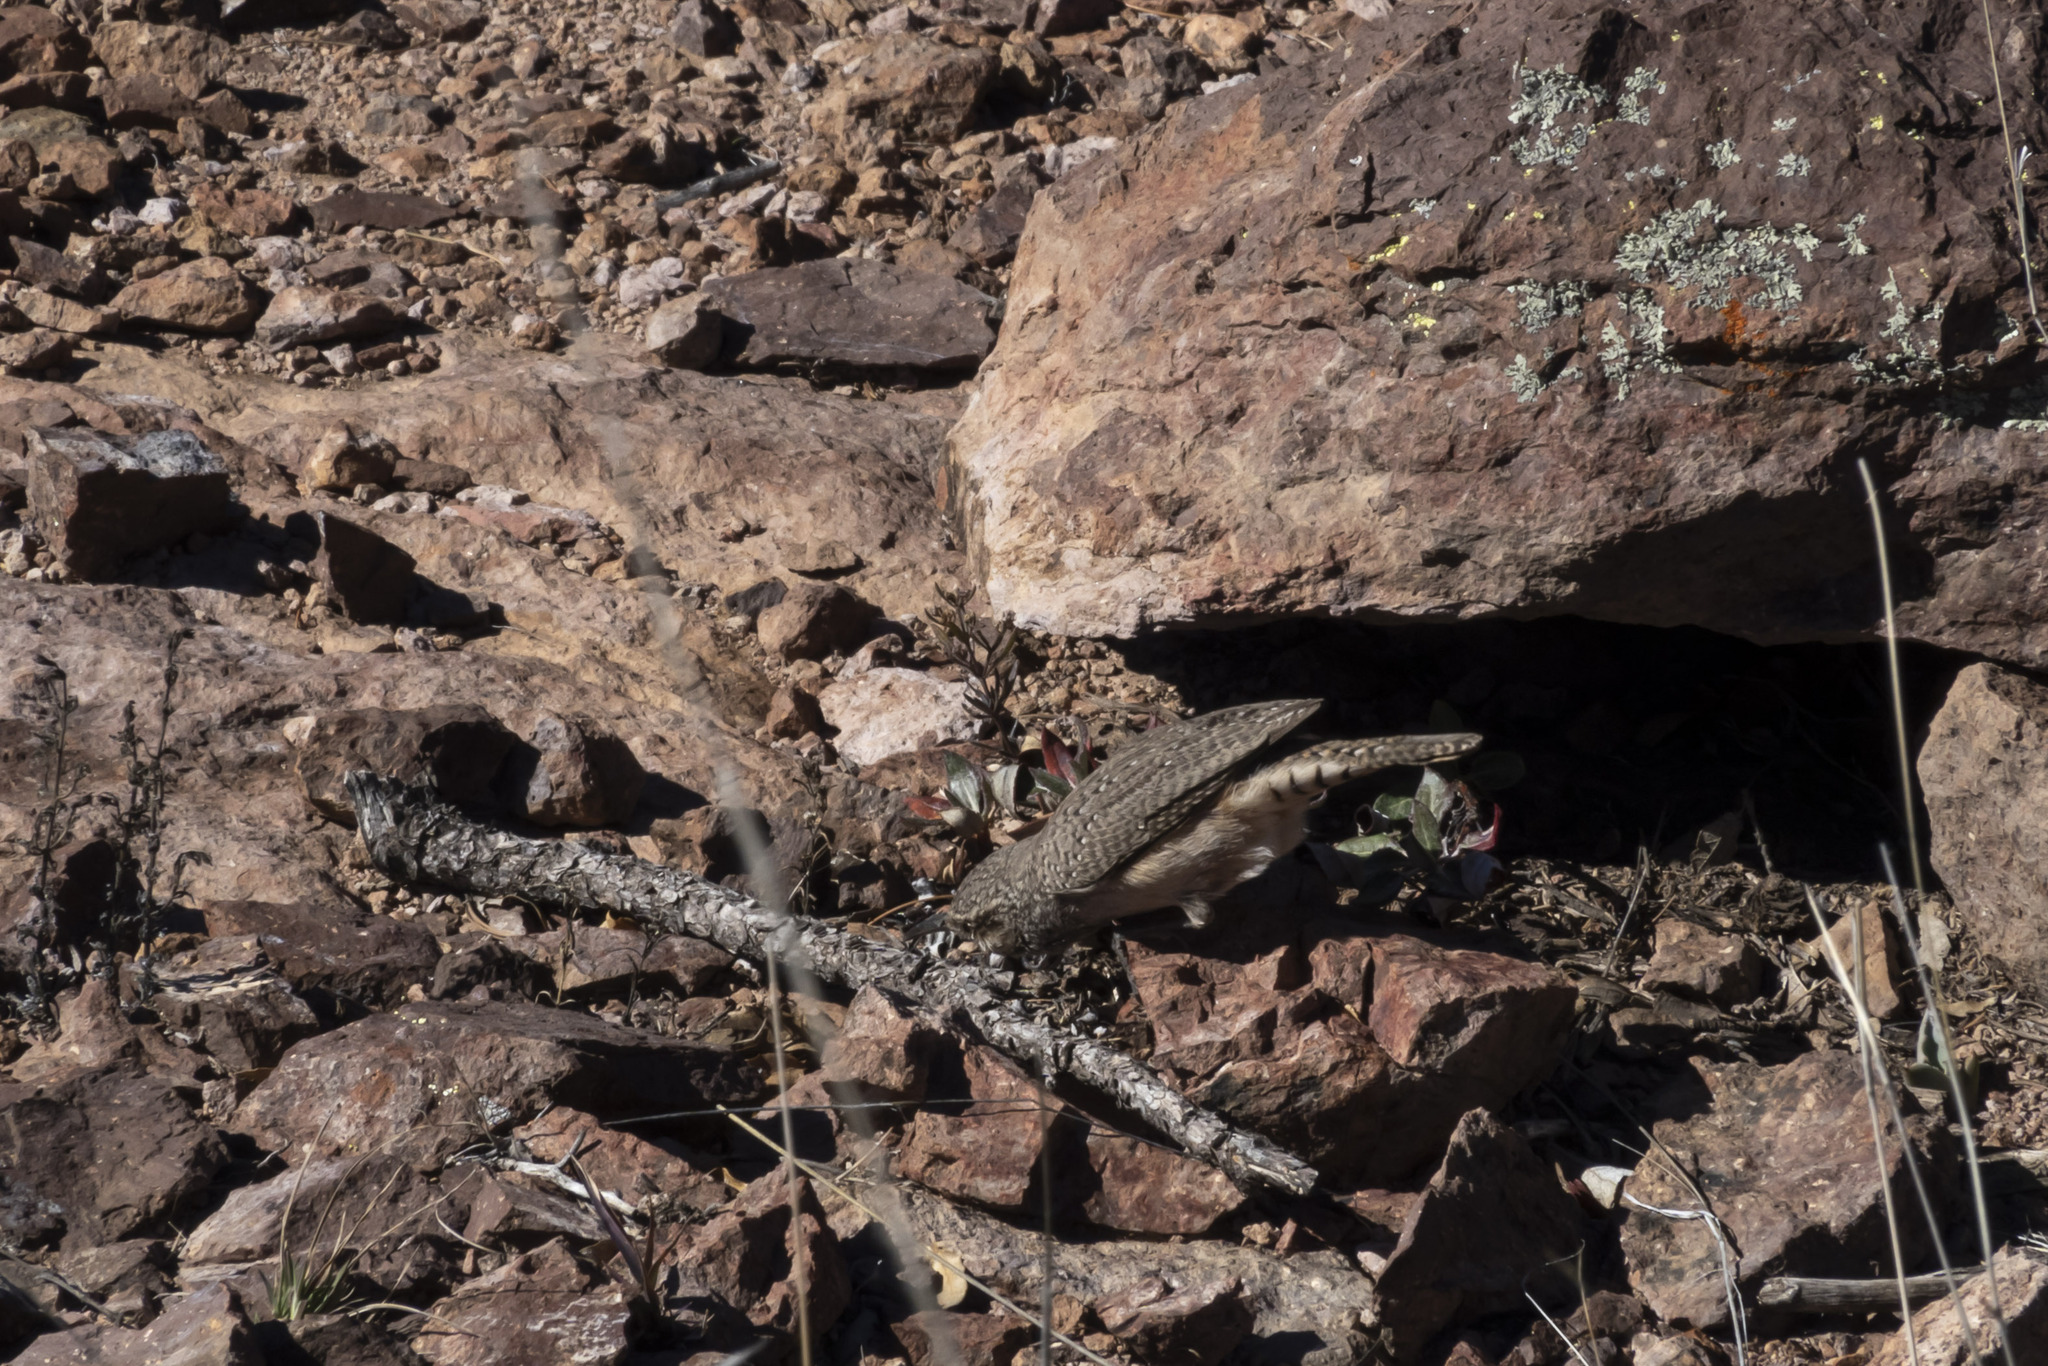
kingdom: Animalia
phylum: Chordata
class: Aves
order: Passeriformes
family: Troglodytidae
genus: Salpinctes
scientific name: Salpinctes obsoletus
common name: Rock wren
